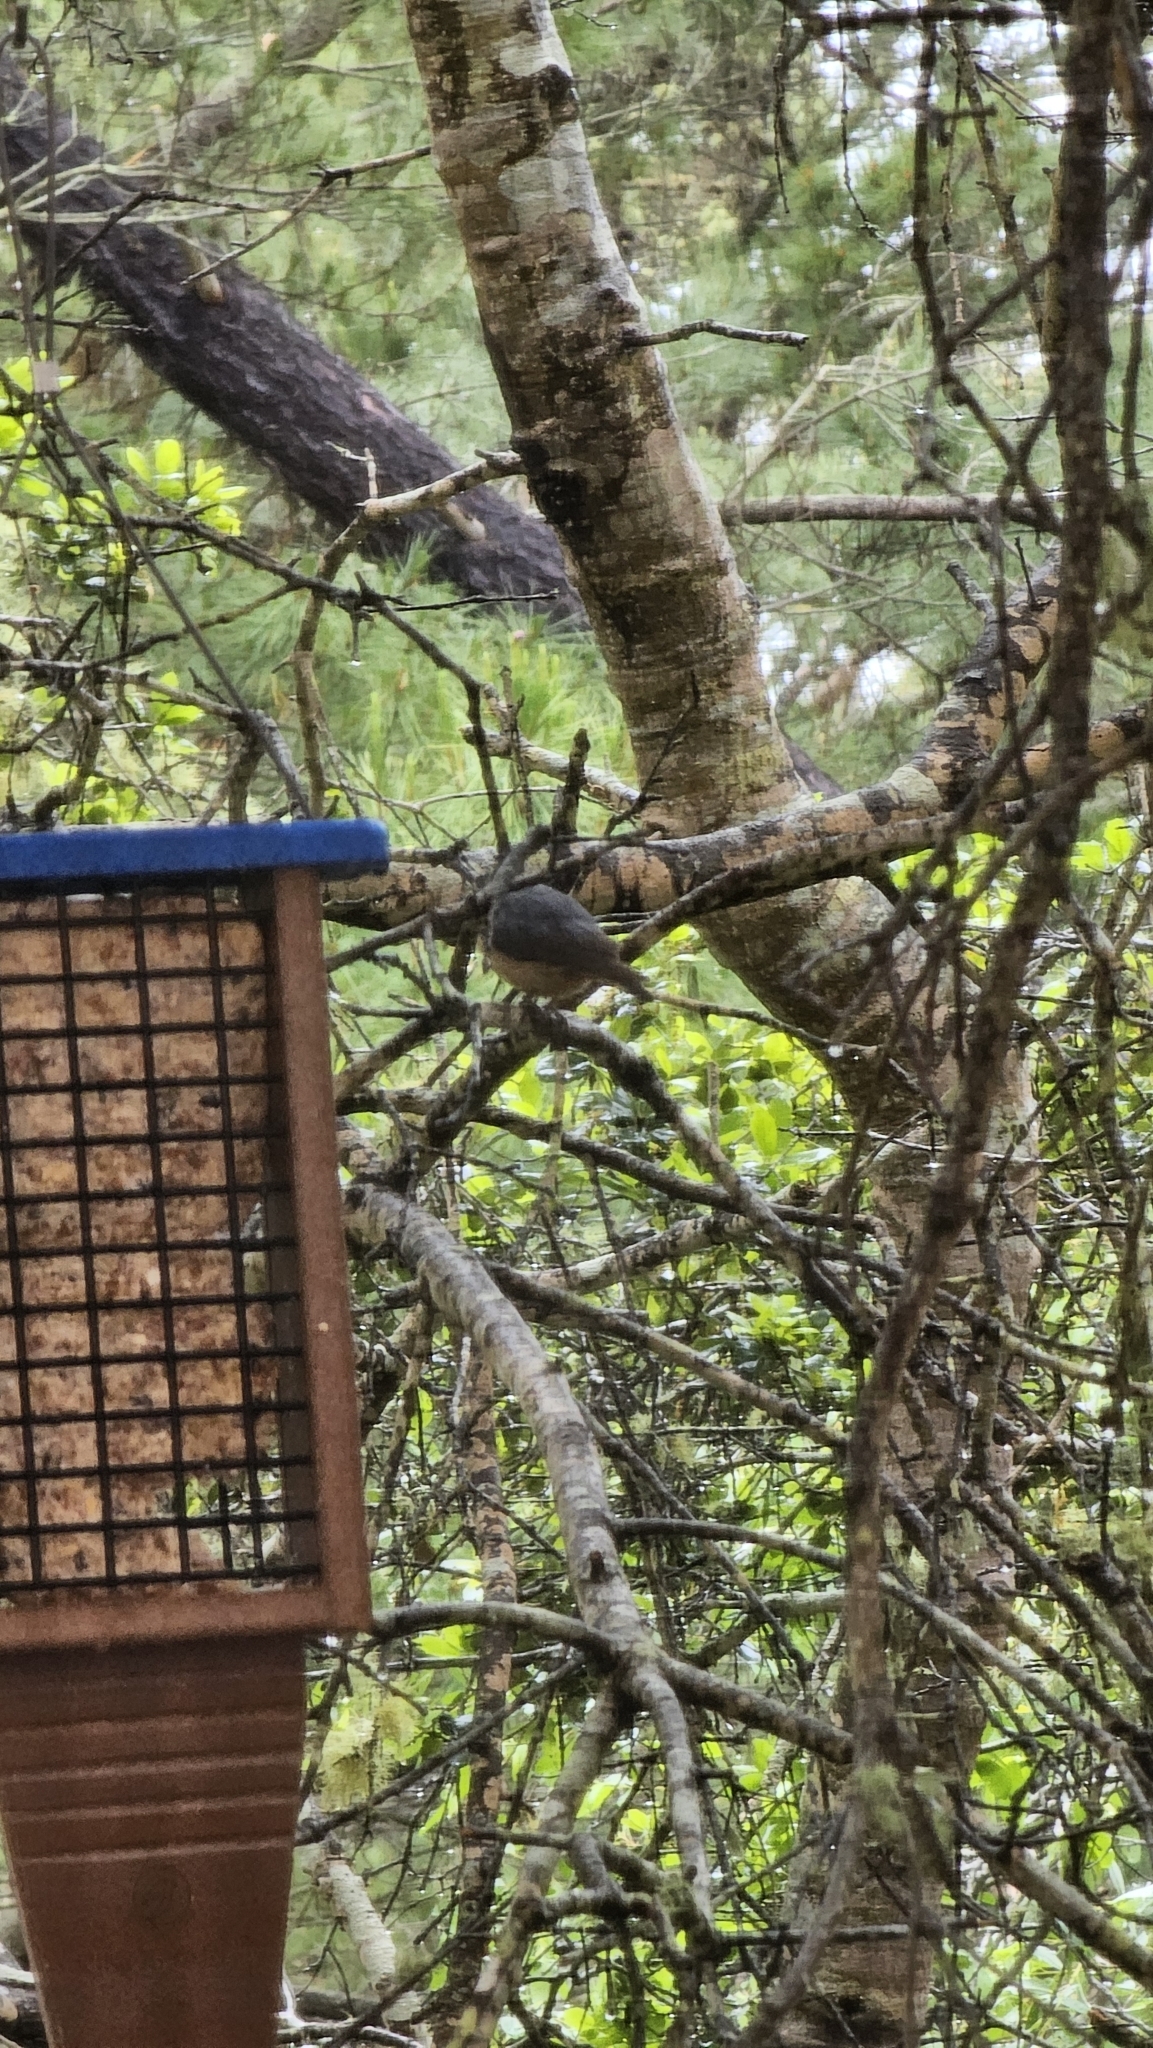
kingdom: Animalia
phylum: Chordata
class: Aves
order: Passeriformes
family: Sittidae
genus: Sitta
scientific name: Sitta canadensis
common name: Red-breasted nuthatch
